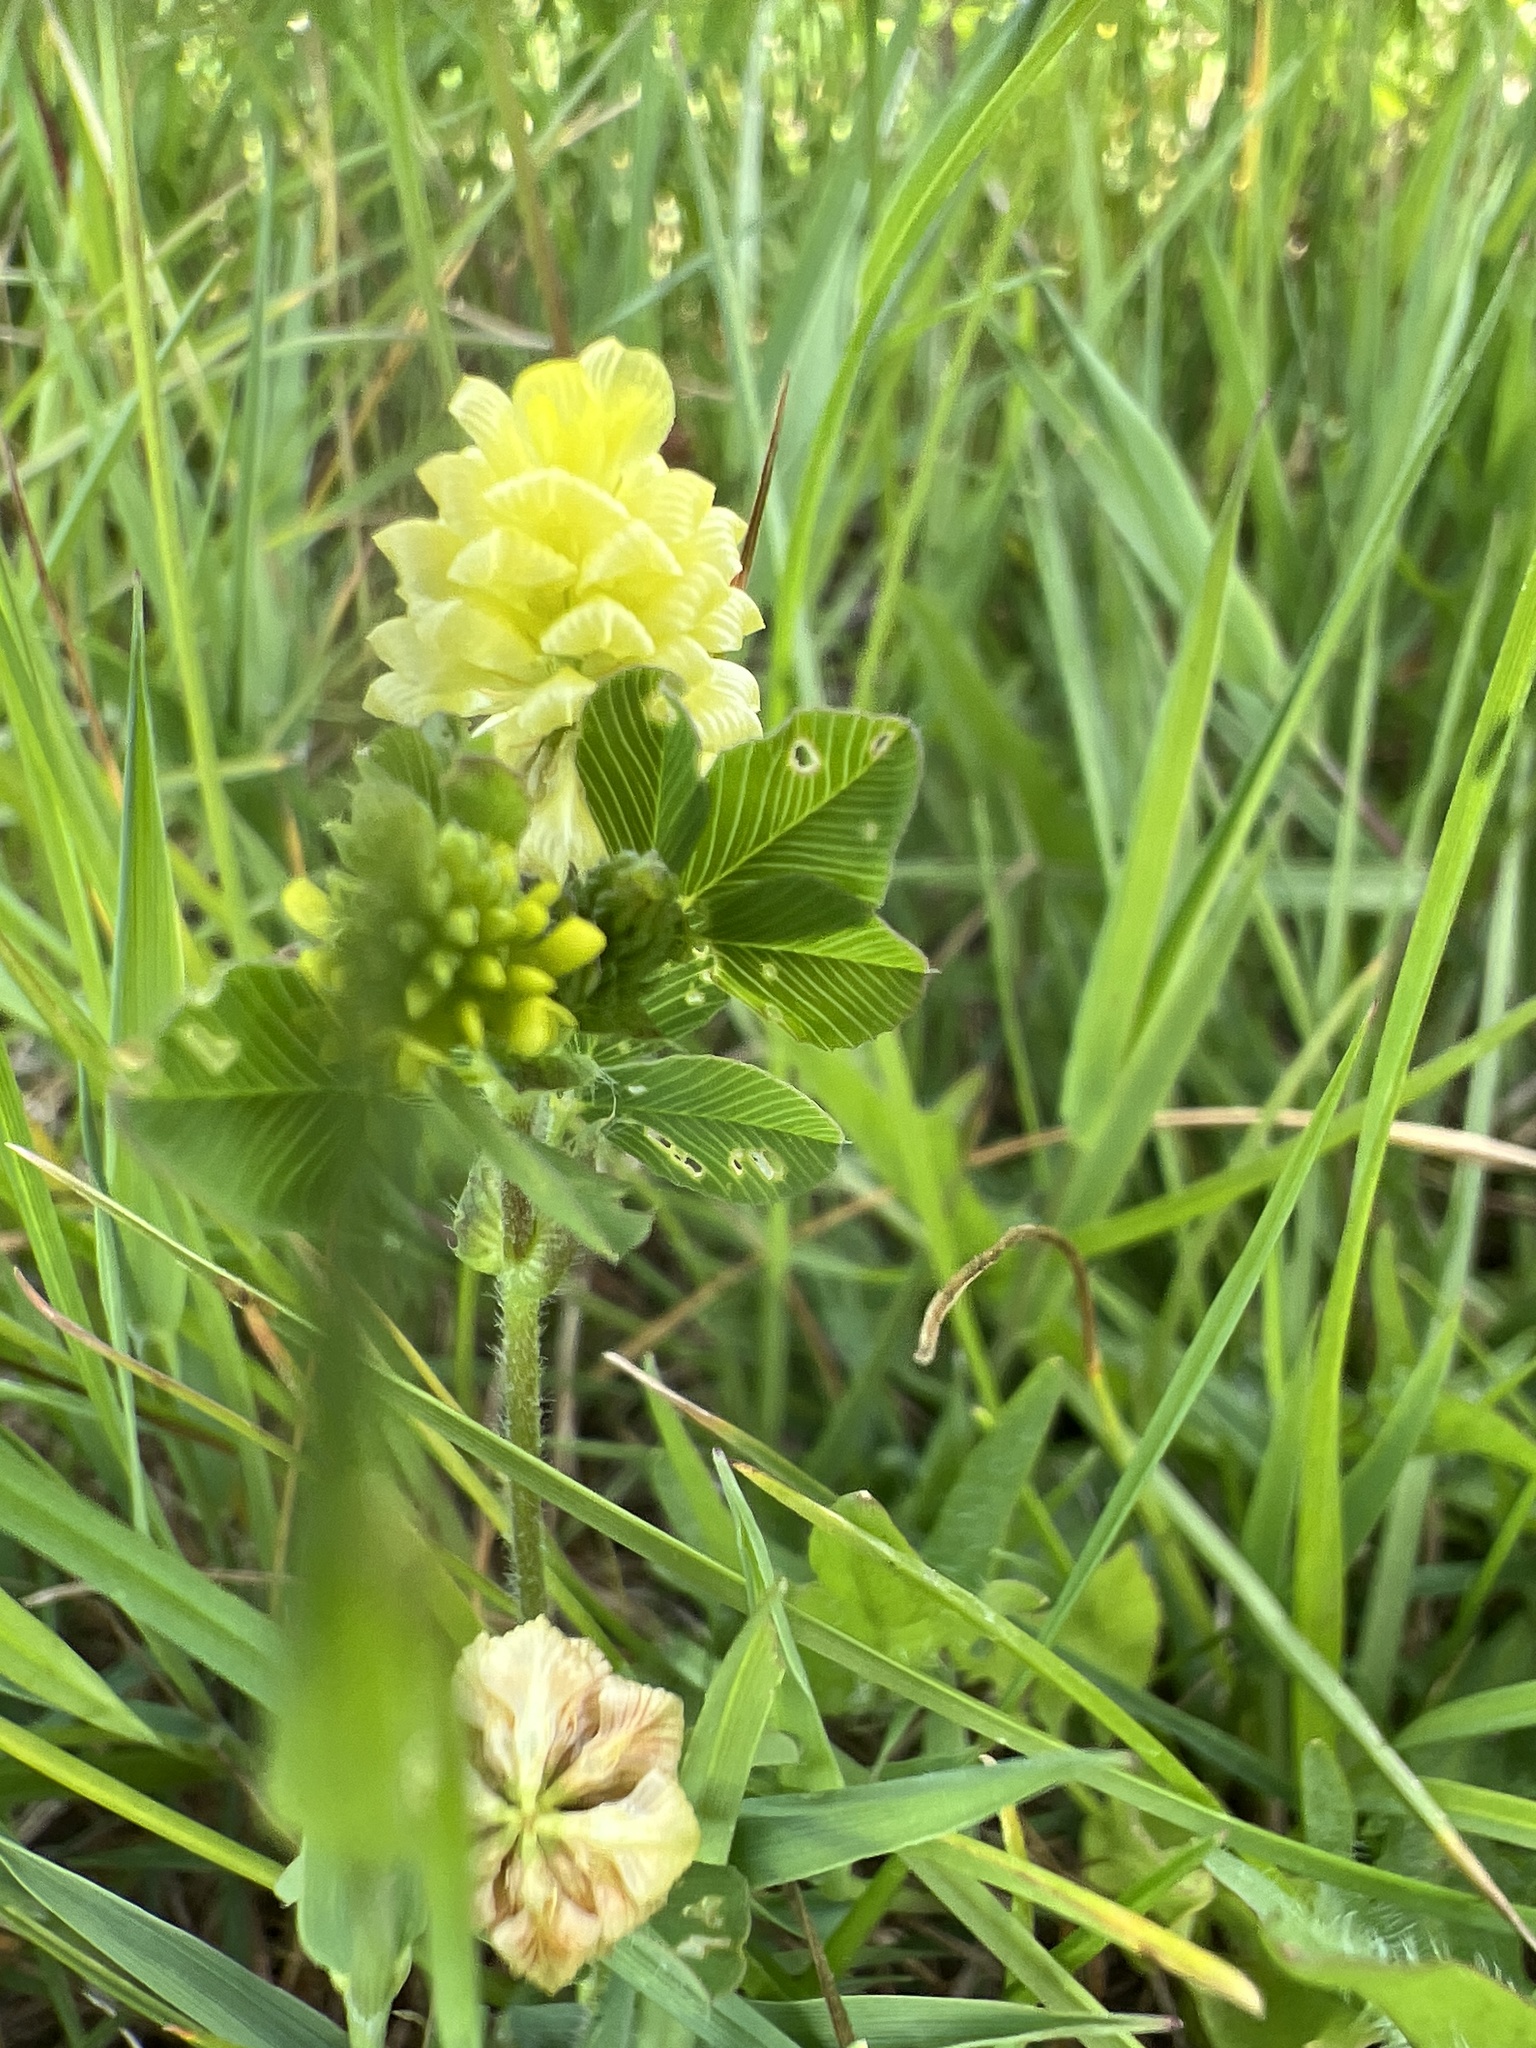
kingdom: Plantae
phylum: Tracheophyta
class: Magnoliopsida
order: Fabales
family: Fabaceae
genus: Trifolium
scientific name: Trifolium campestre
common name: Field clover
